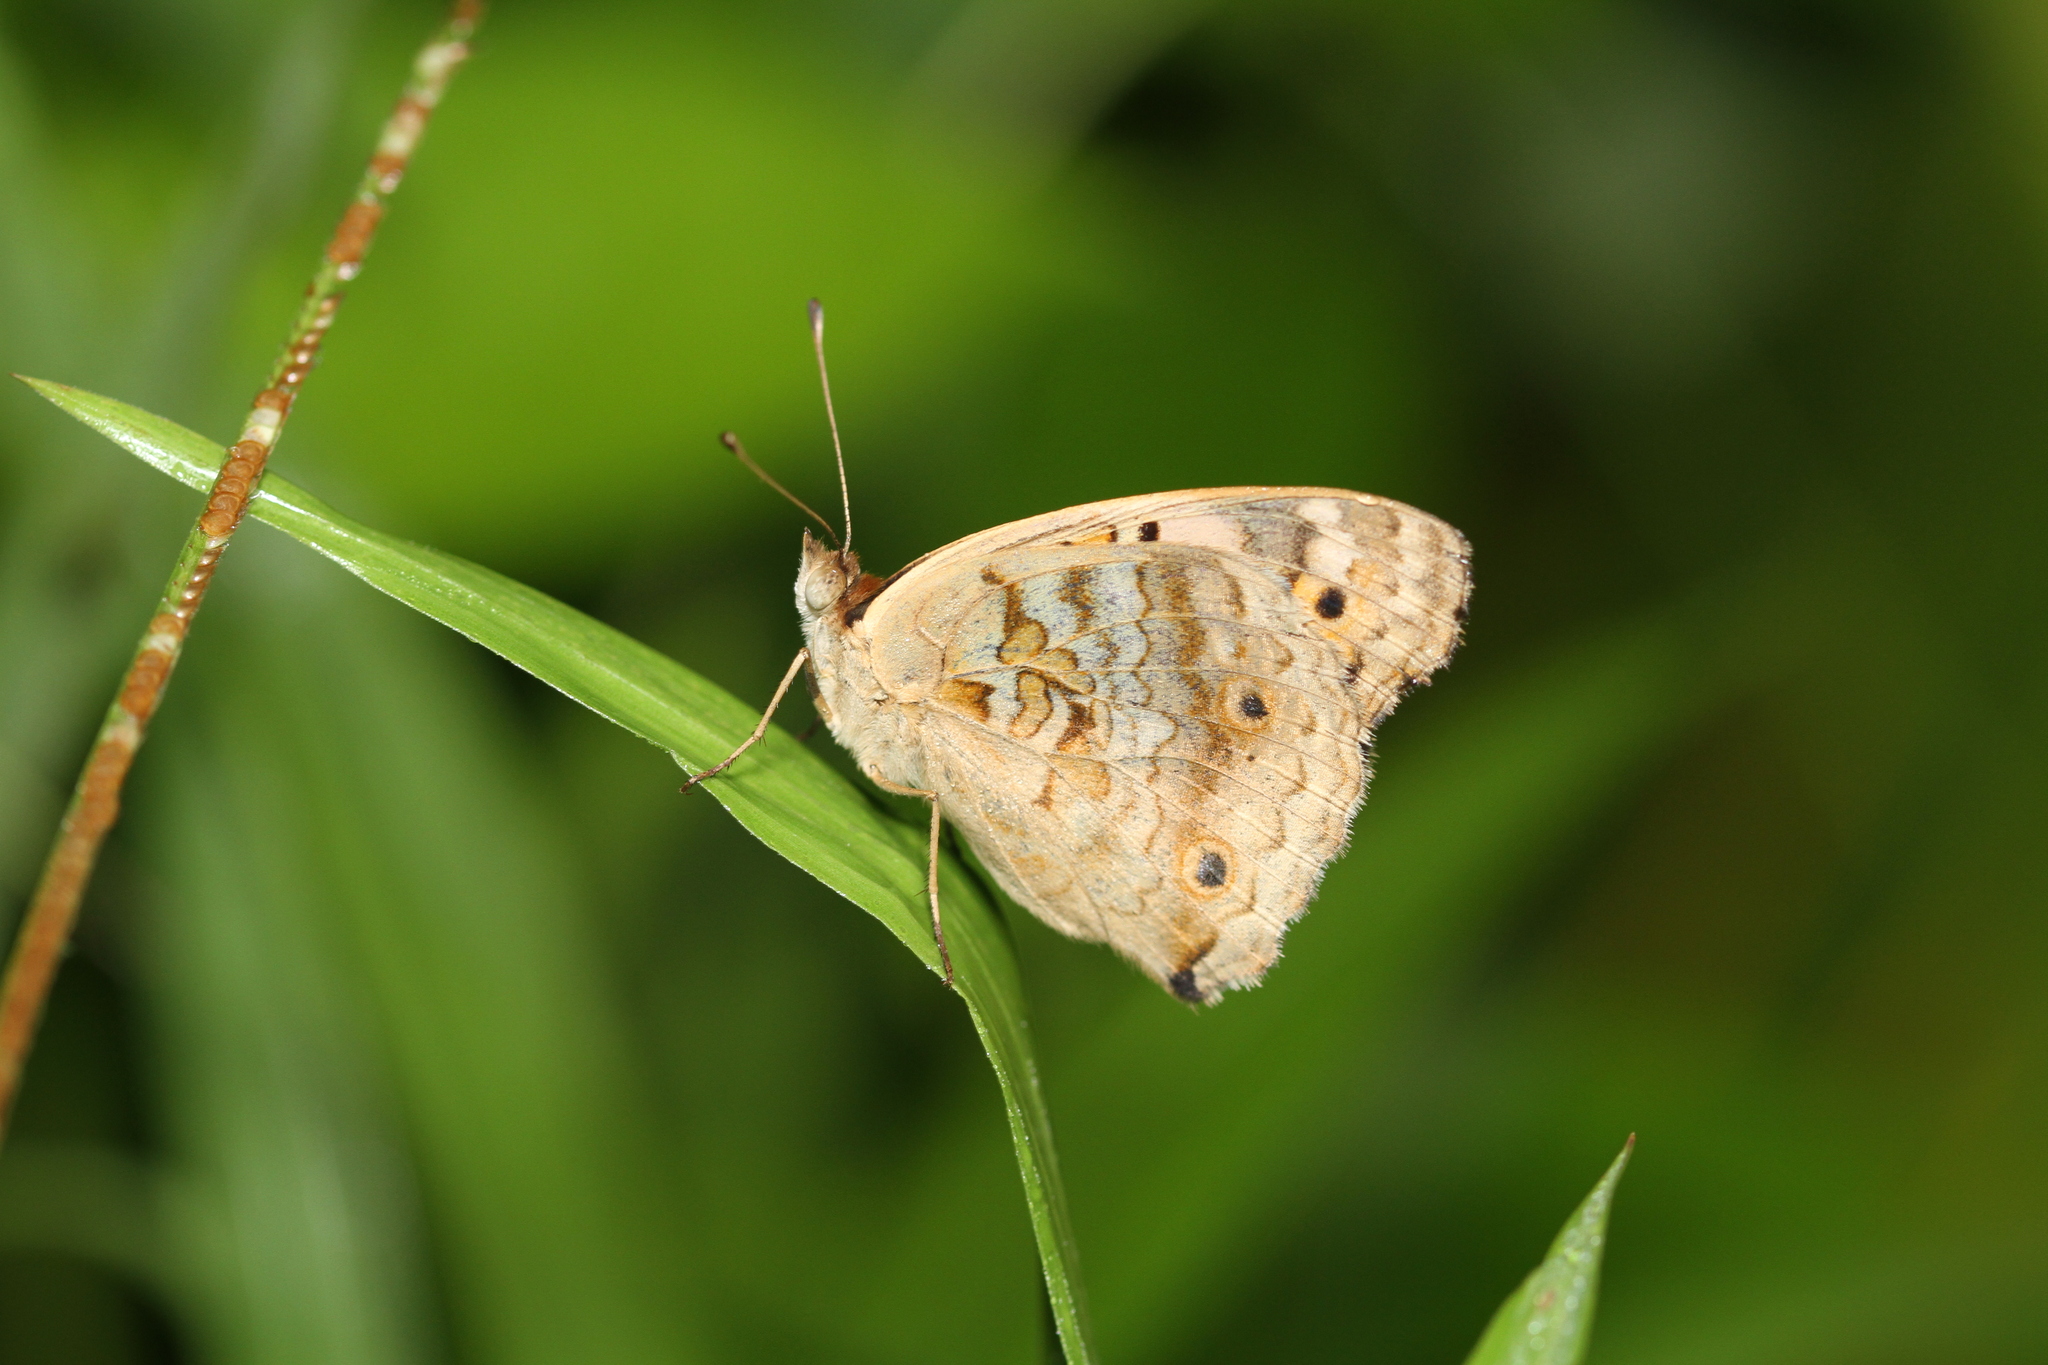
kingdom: Animalia
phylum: Arthropoda
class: Insecta
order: Lepidoptera
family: Nymphalidae
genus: Junonia
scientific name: Junonia orithya
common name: Blue pansy
